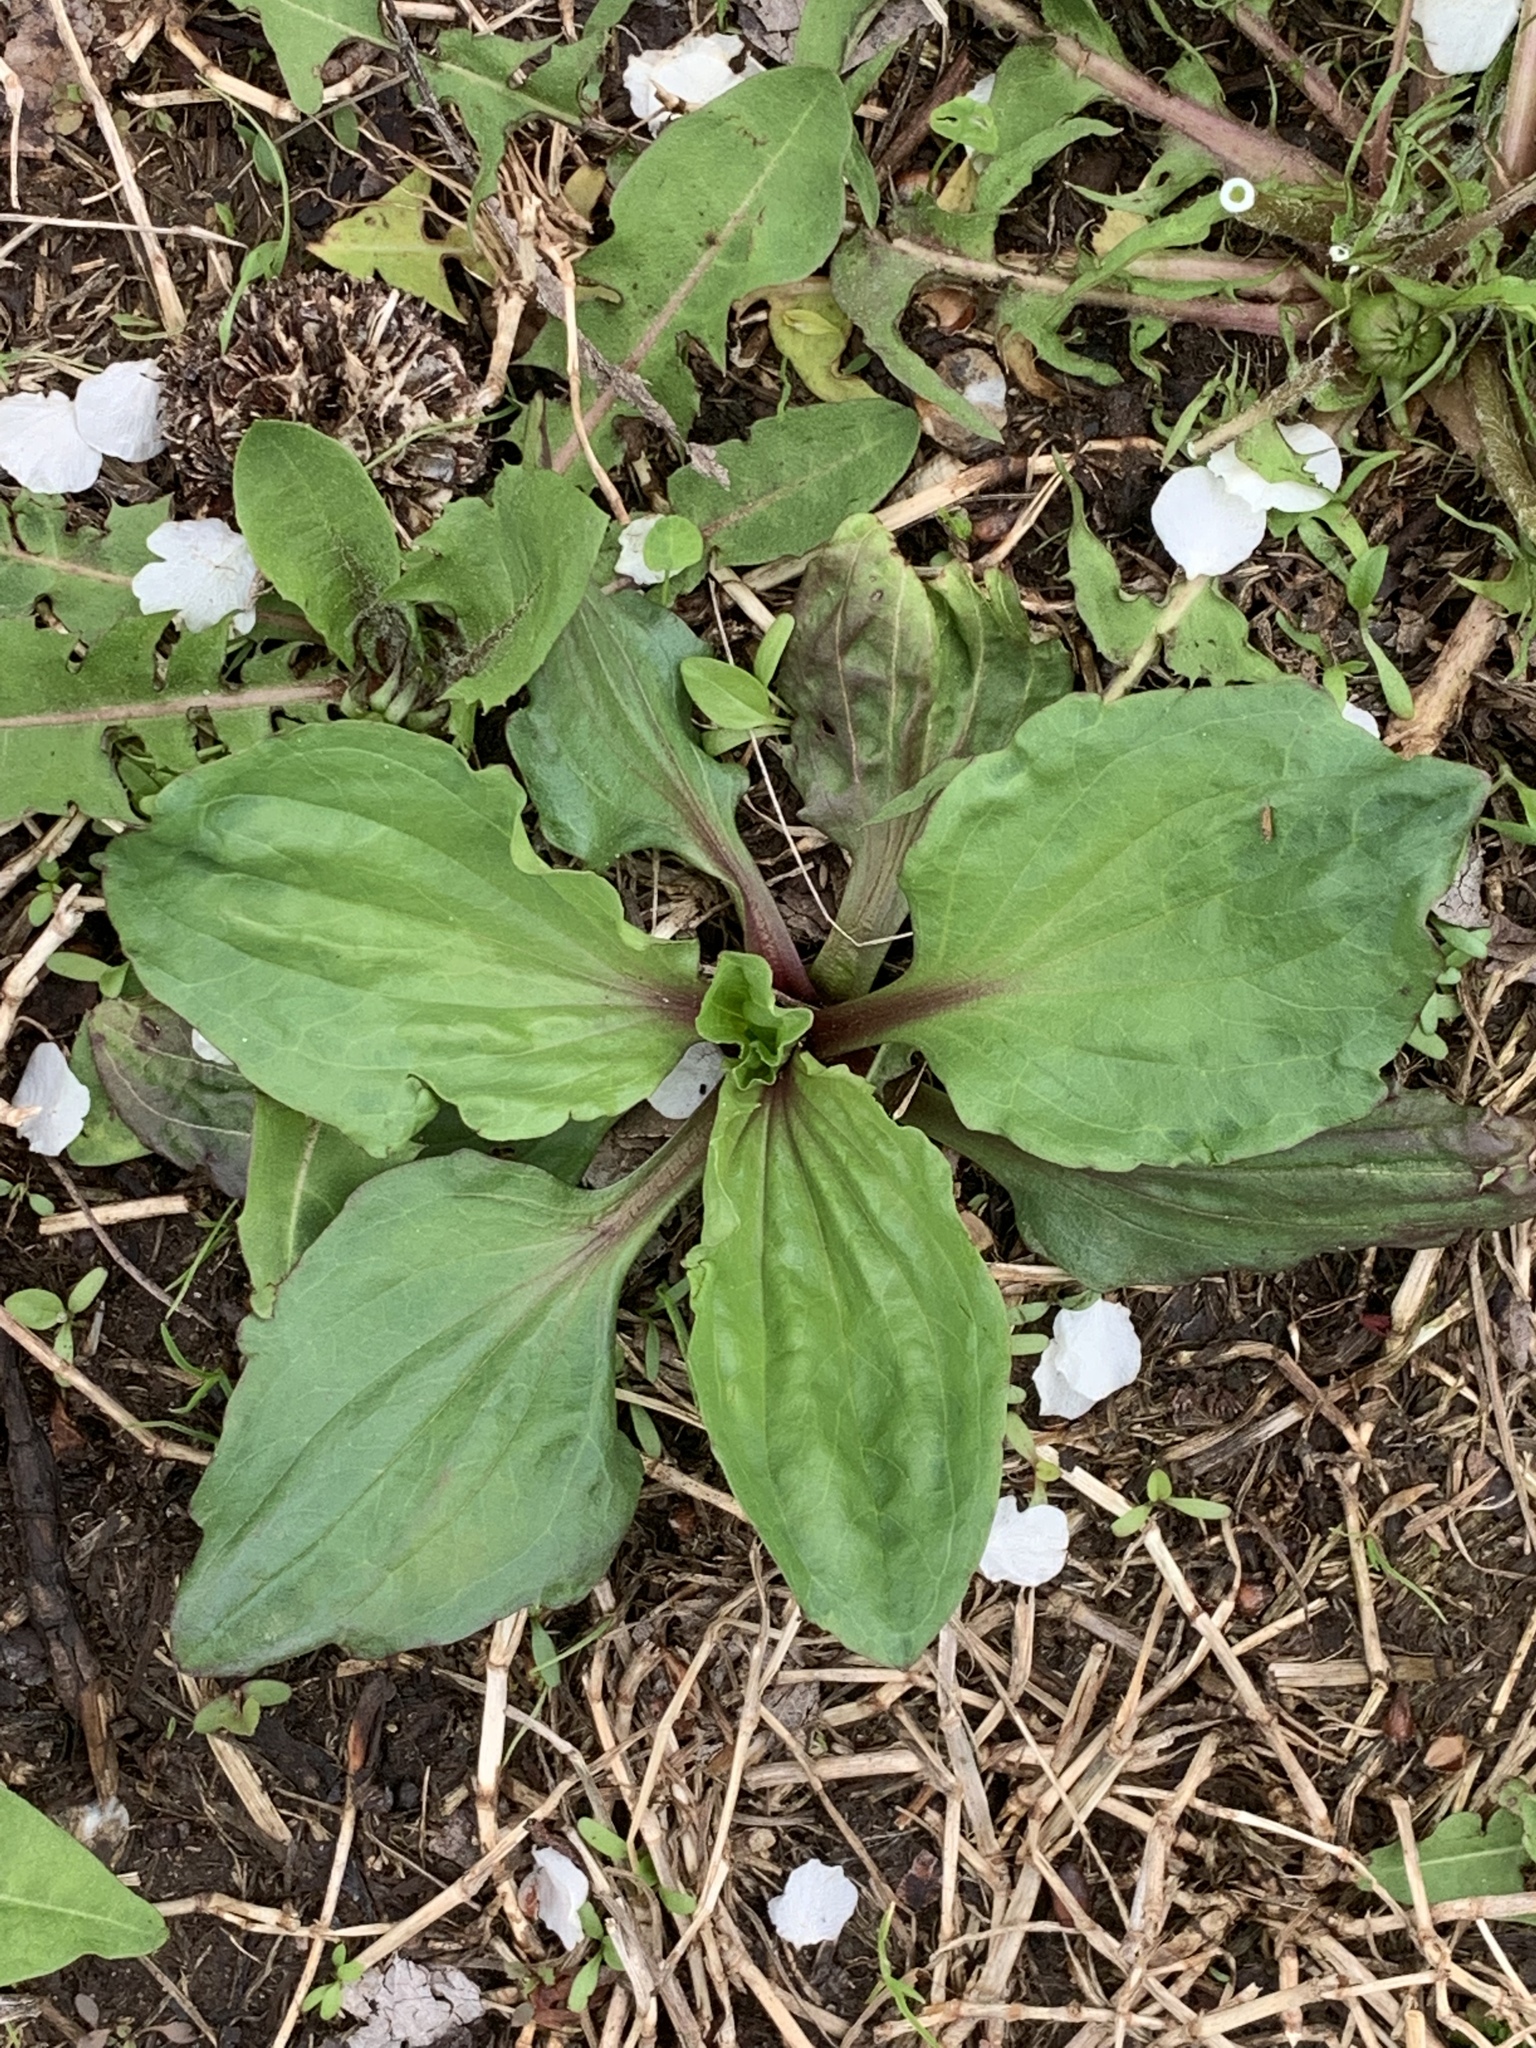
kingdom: Plantae
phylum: Tracheophyta
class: Magnoliopsida
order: Lamiales
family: Plantaginaceae
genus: Plantago
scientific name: Plantago rugelii
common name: American plantain
